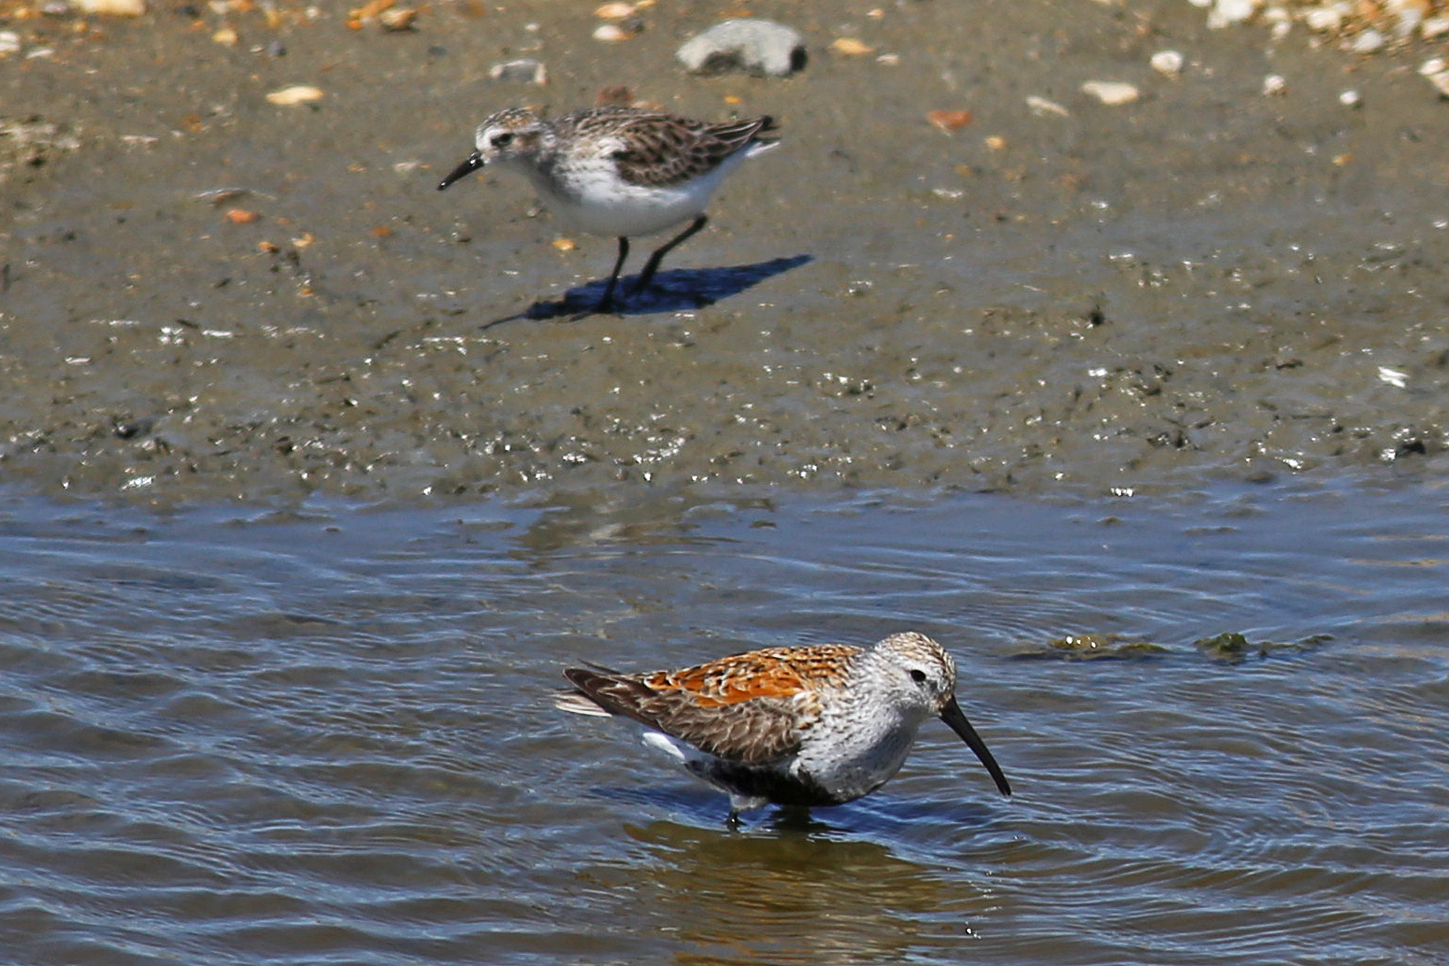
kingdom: Animalia
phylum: Chordata
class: Aves
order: Charadriiformes
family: Scolopacidae
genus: Calidris
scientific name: Calidris alpina
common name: Dunlin
